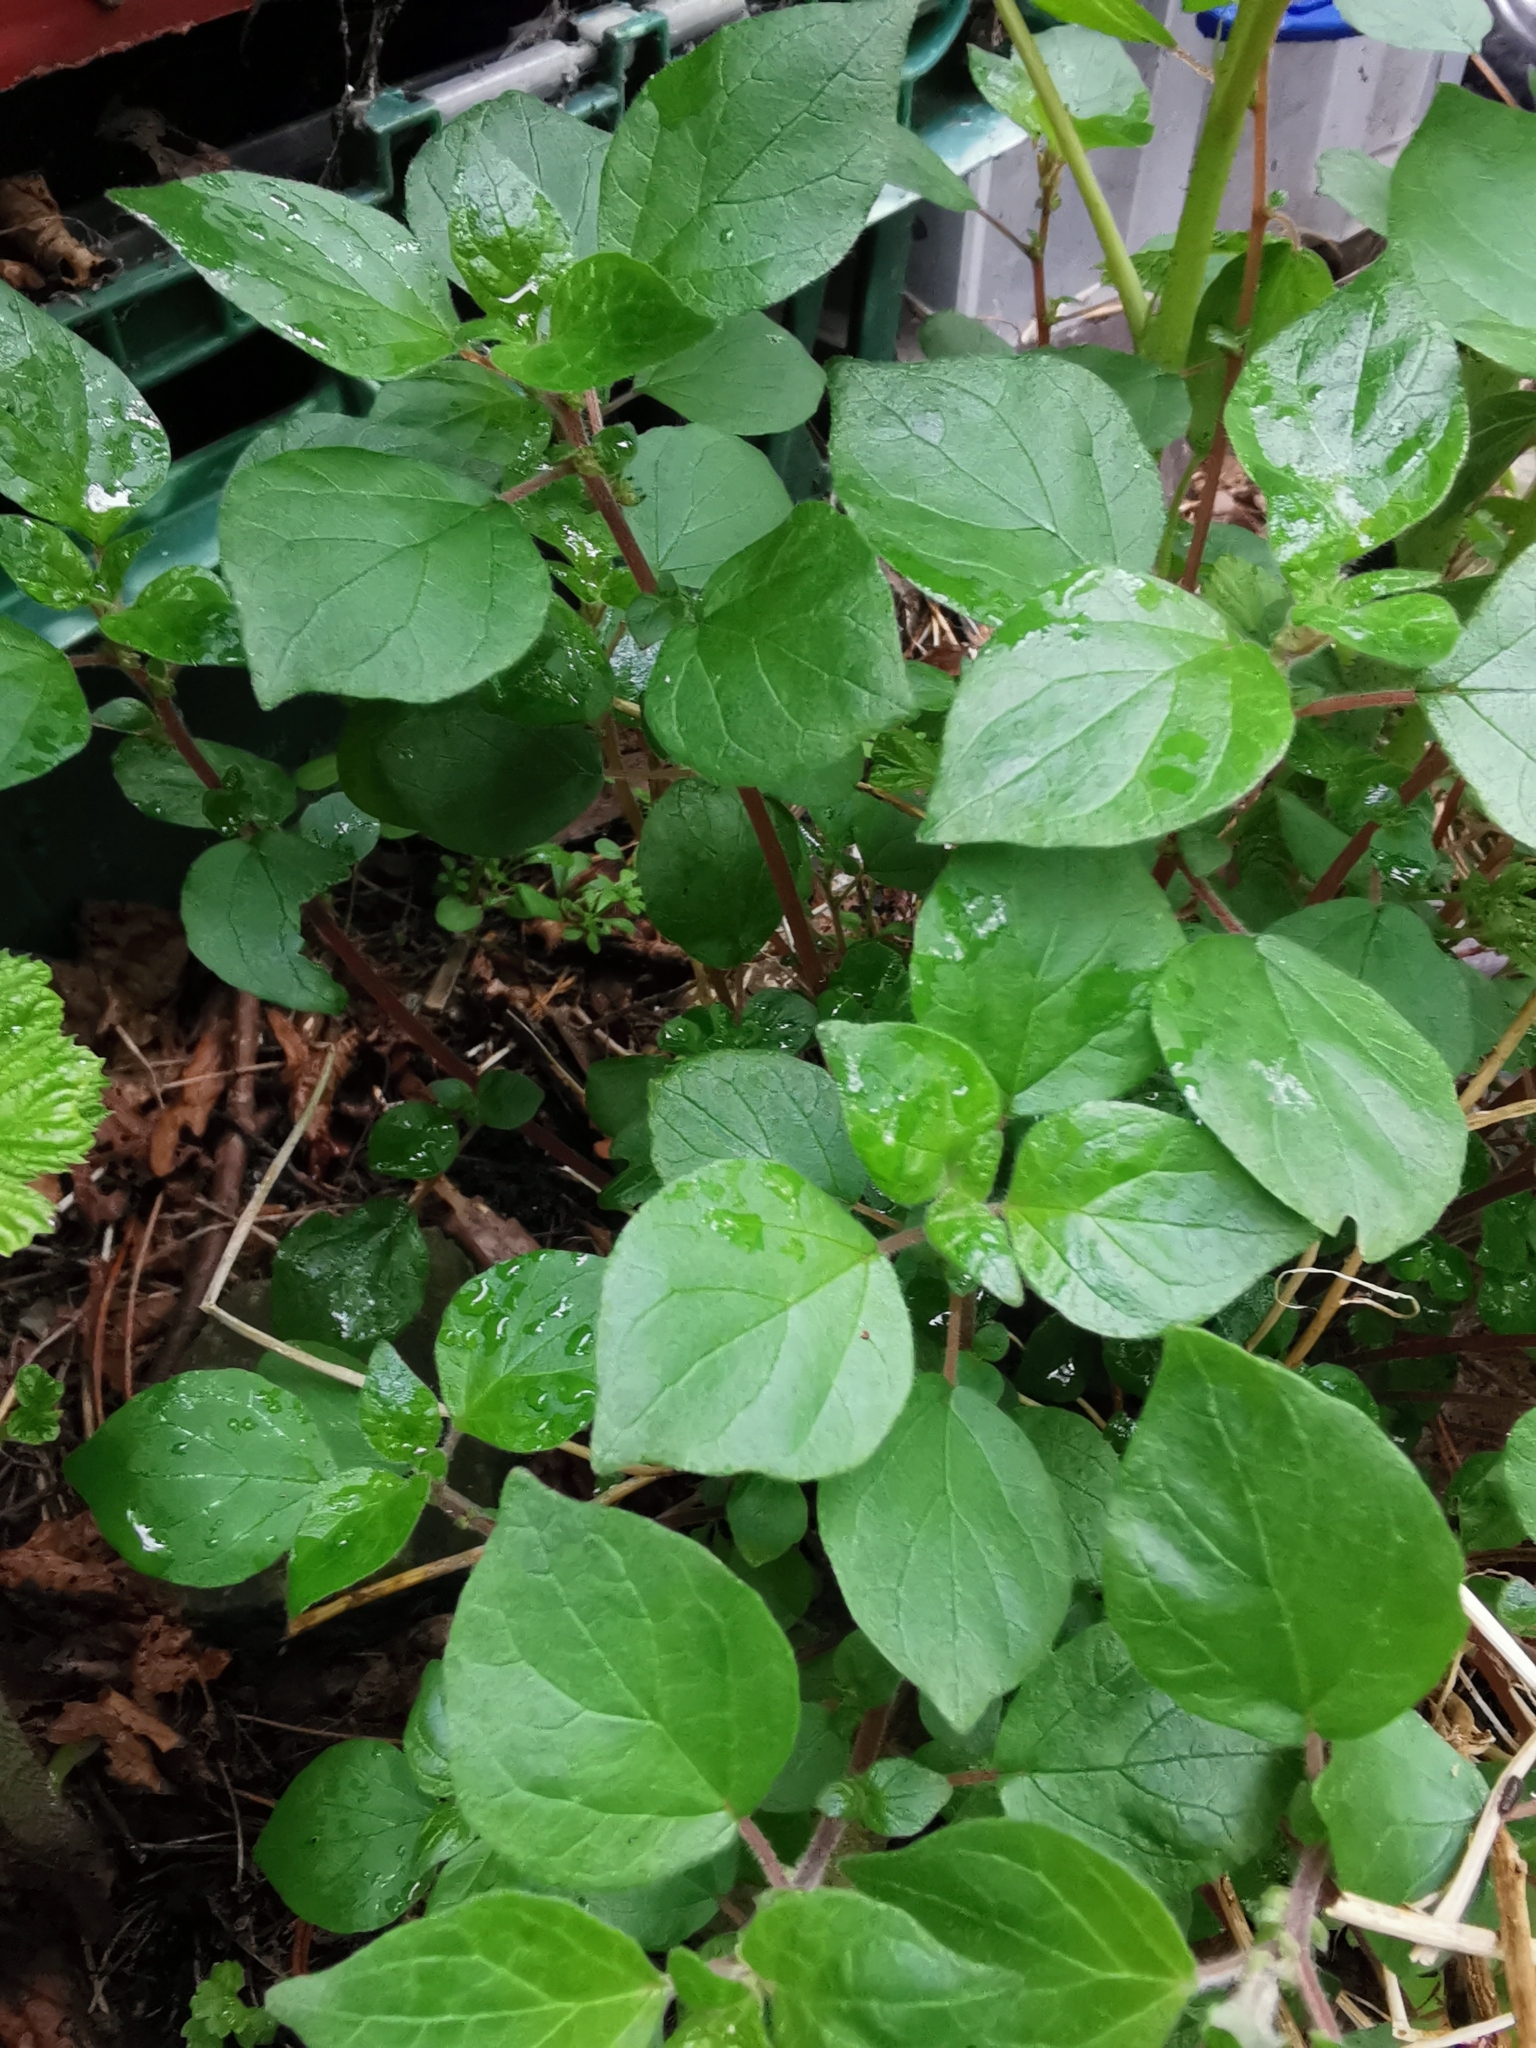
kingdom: Plantae
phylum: Tracheophyta
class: Magnoliopsida
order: Rosales
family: Urticaceae
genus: Parietaria
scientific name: Parietaria judaica
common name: Pellitory-of-the-wall
